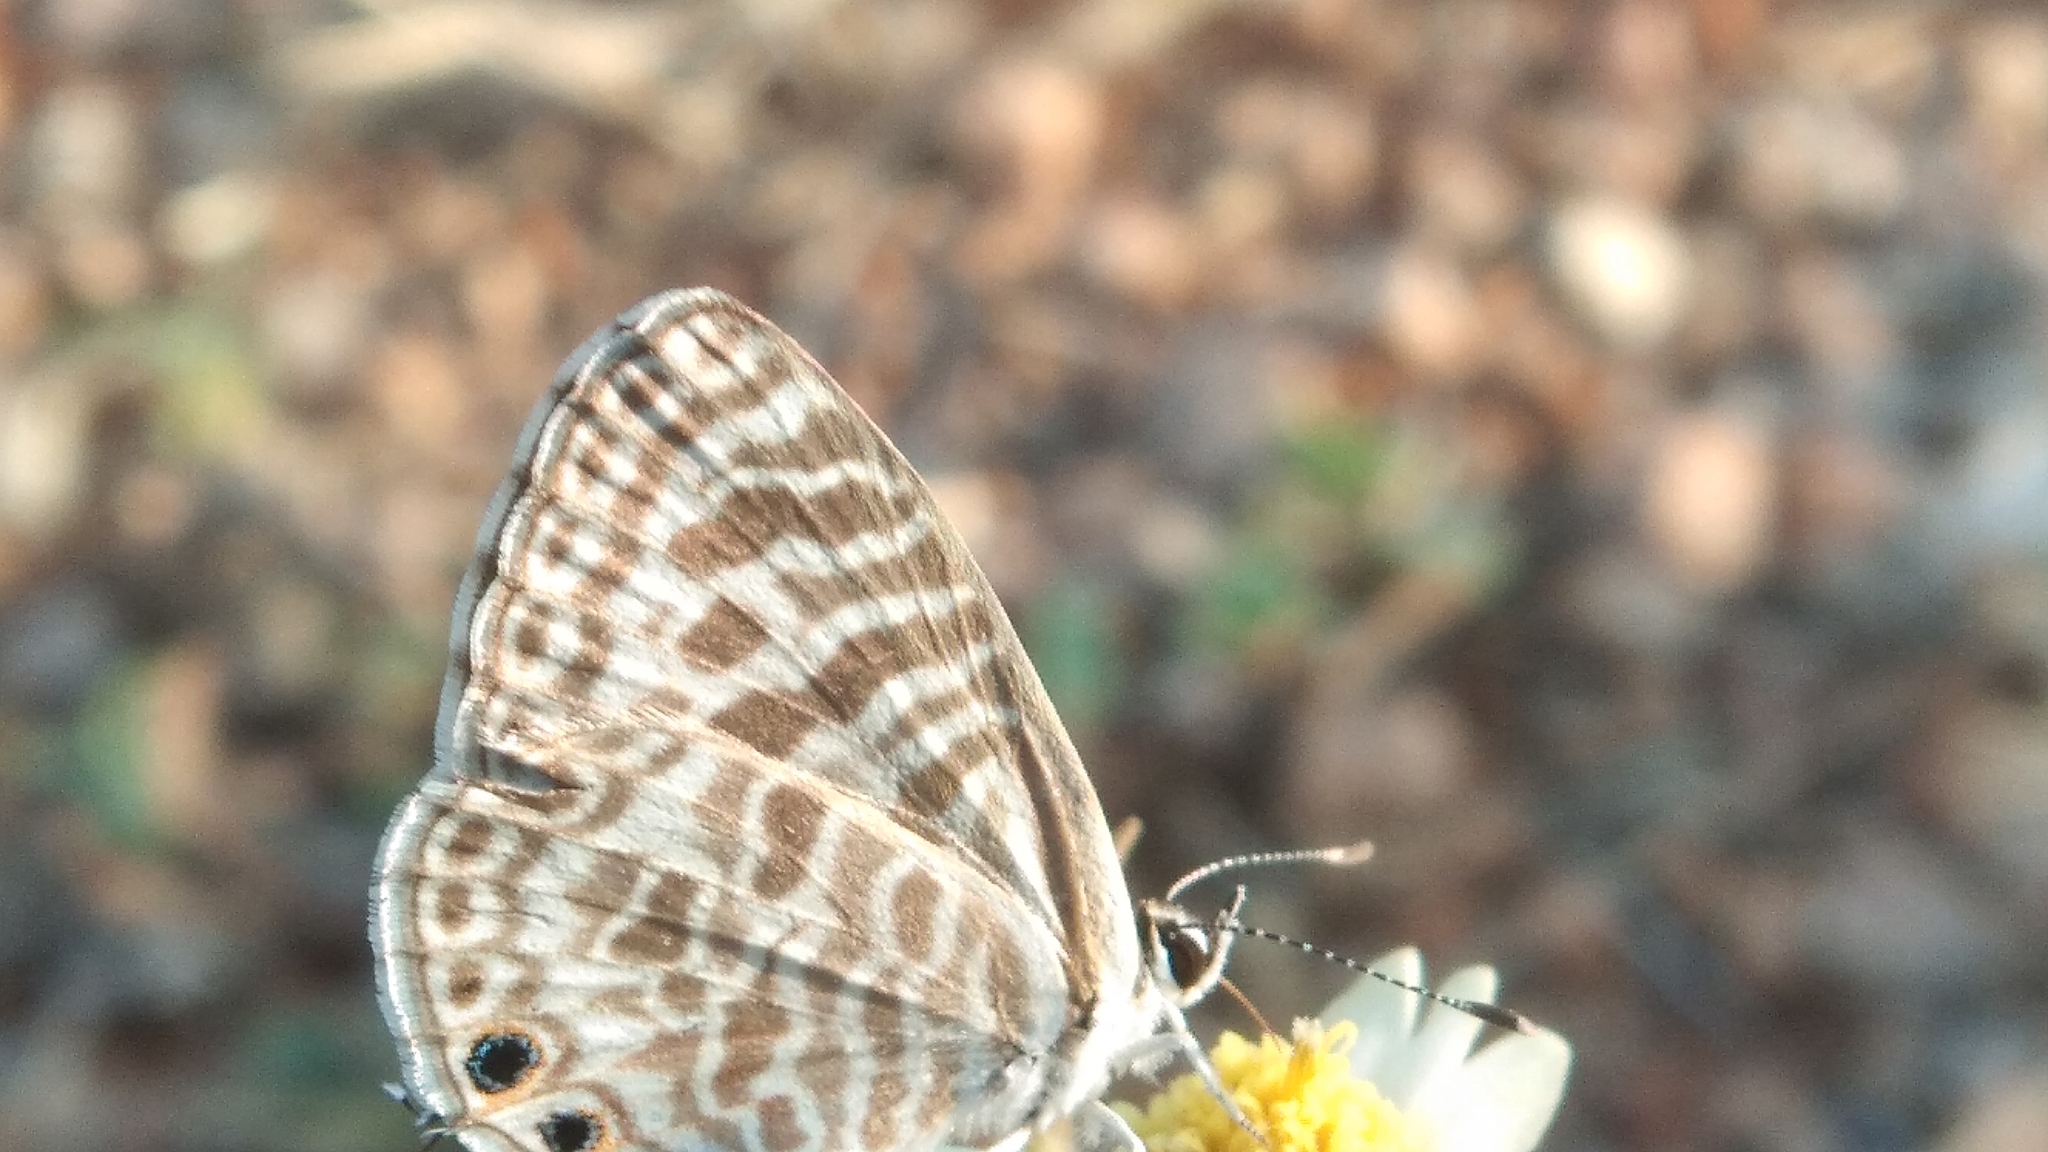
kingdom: Animalia
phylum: Arthropoda
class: Insecta
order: Lepidoptera
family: Lycaenidae
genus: Leptotes
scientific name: Leptotes plinius
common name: Zebra blue
